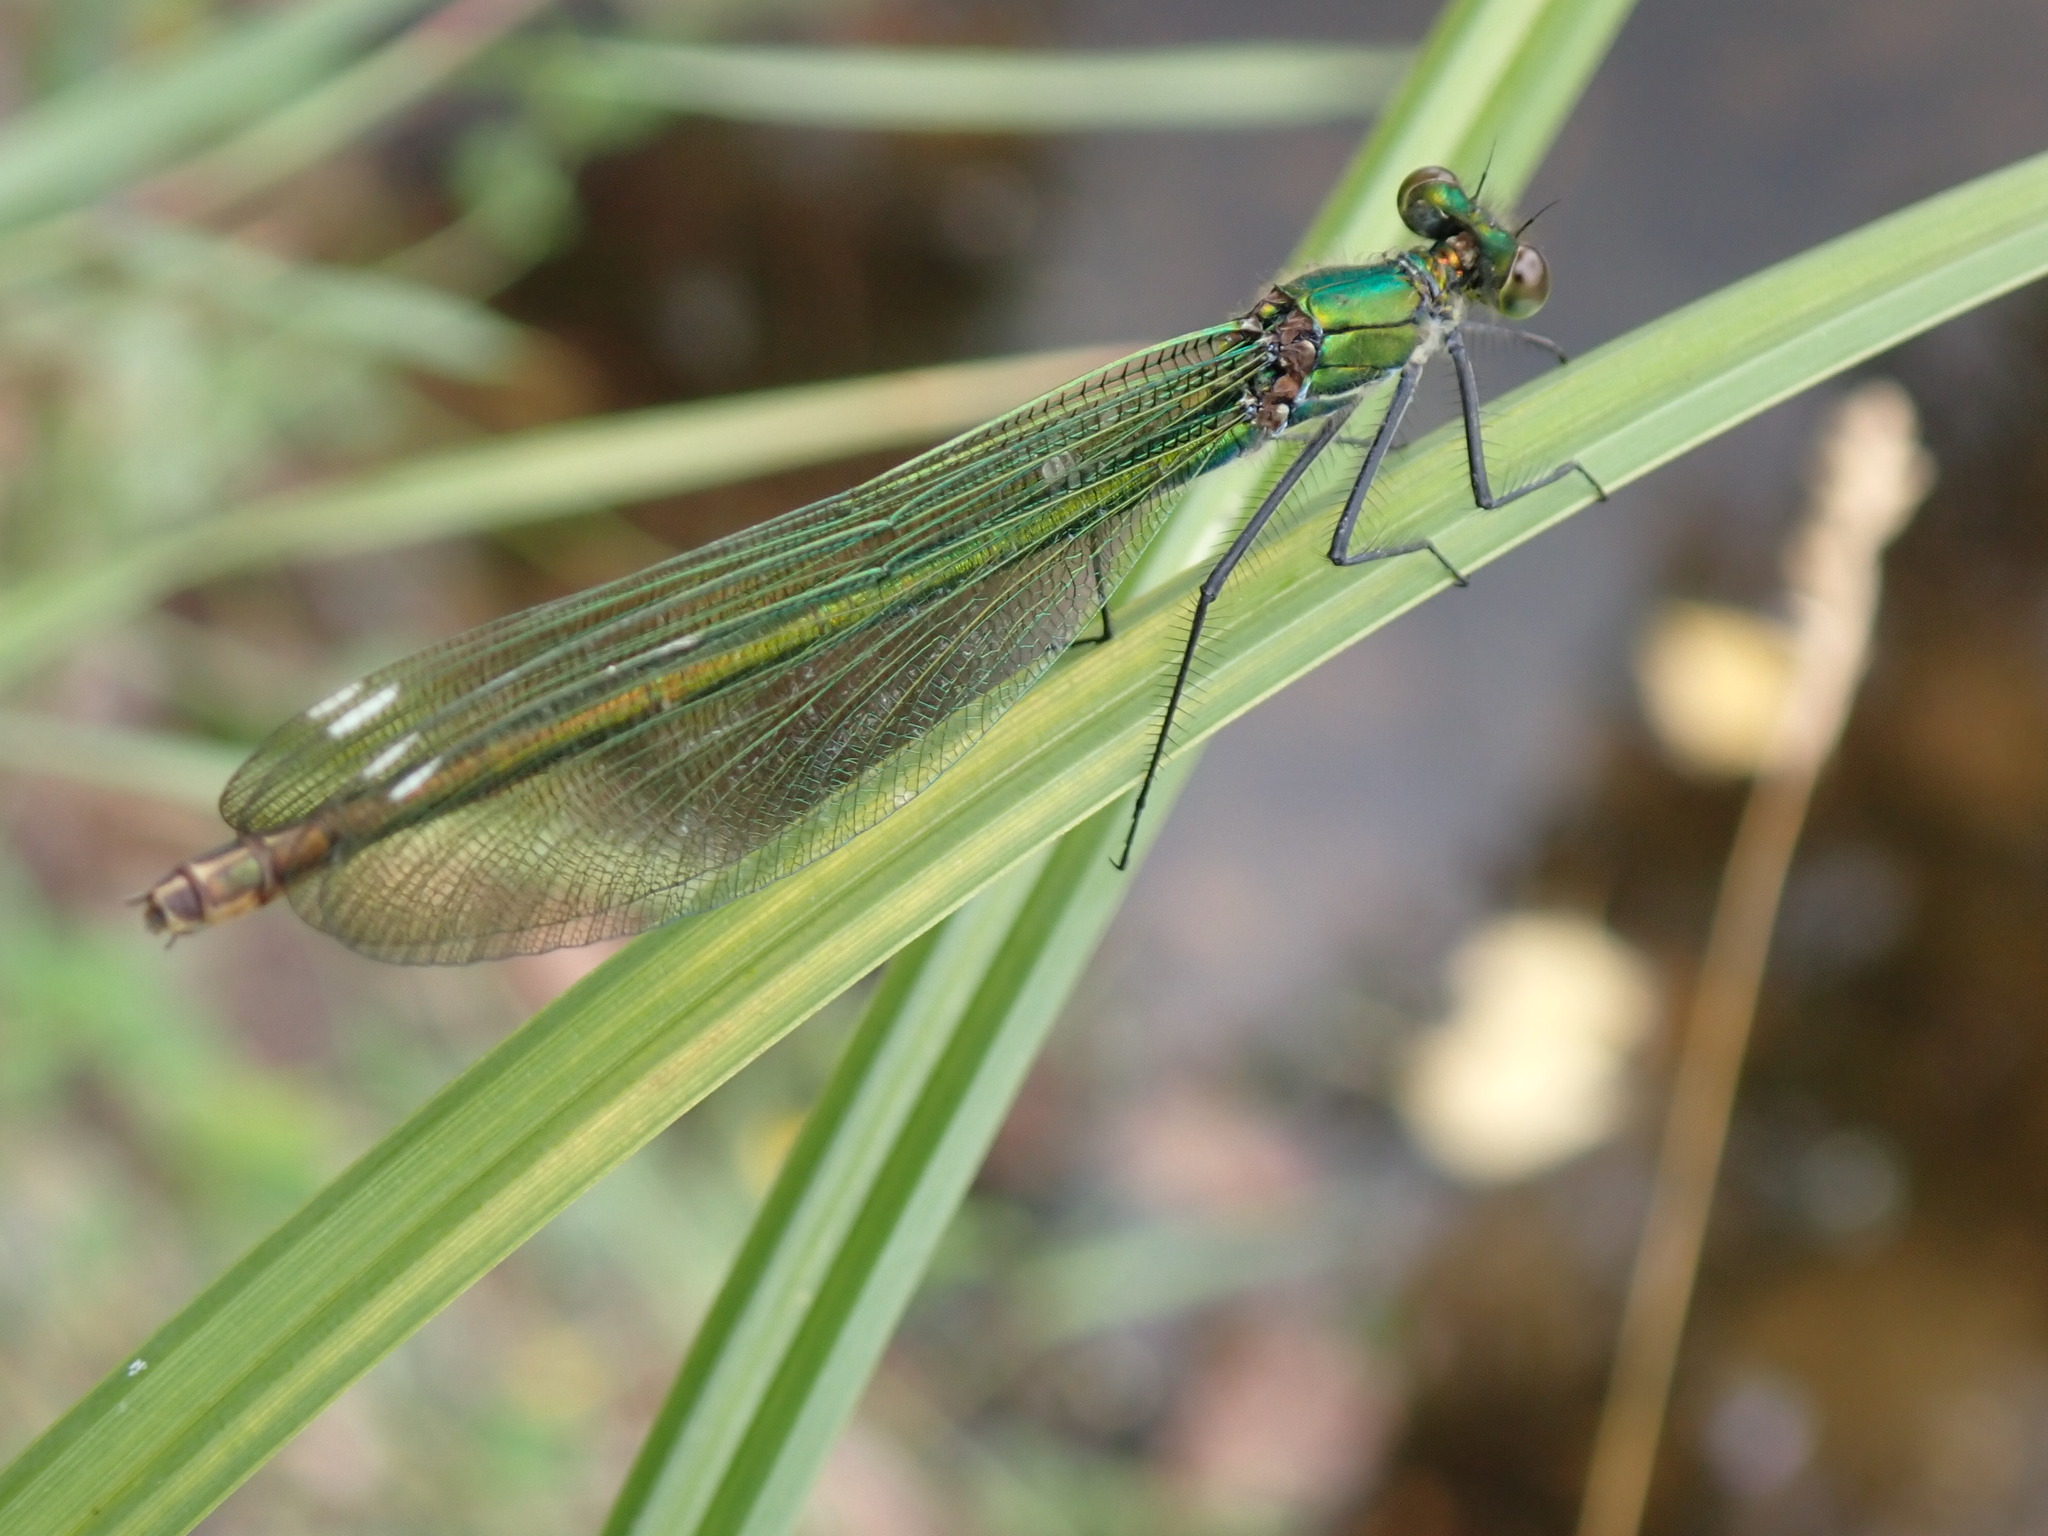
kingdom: Animalia
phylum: Arthropoda
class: Insecta
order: Odonata
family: Calopterygidae
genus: Calopteryx
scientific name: Calopteryx splendens
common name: Banded demoiselle
